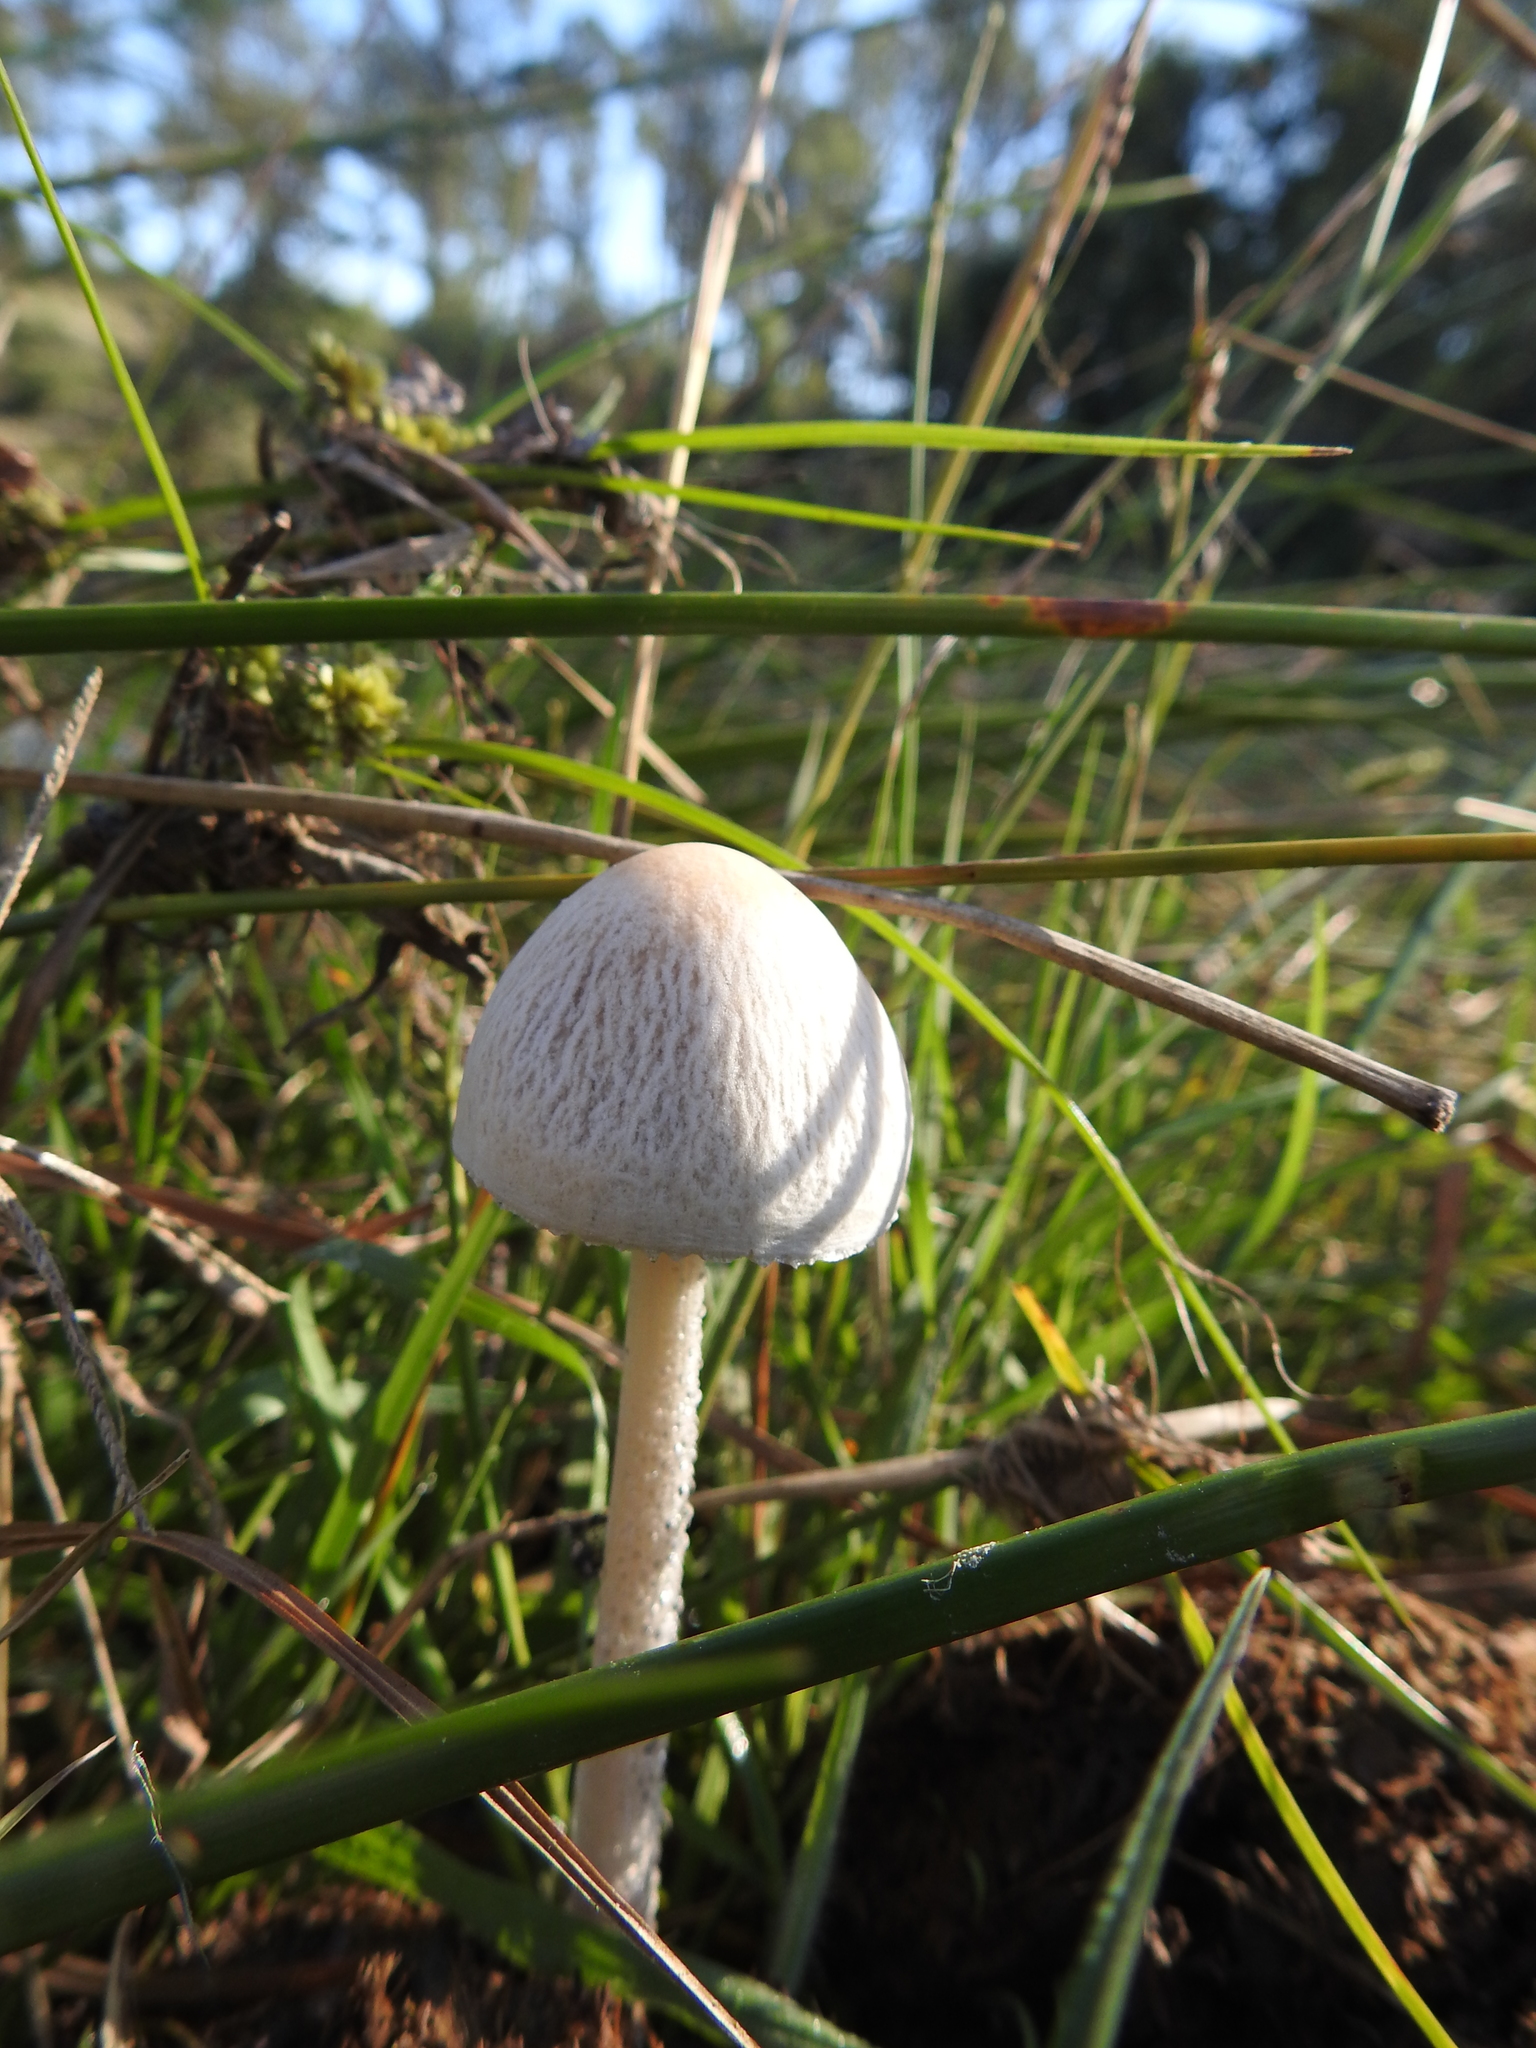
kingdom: Fungi
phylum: Basidiomycota
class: Agaricomycetes
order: Agaricales
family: Bolbitiaceae
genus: Panaeolus
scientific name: Panaeolus antillarum
